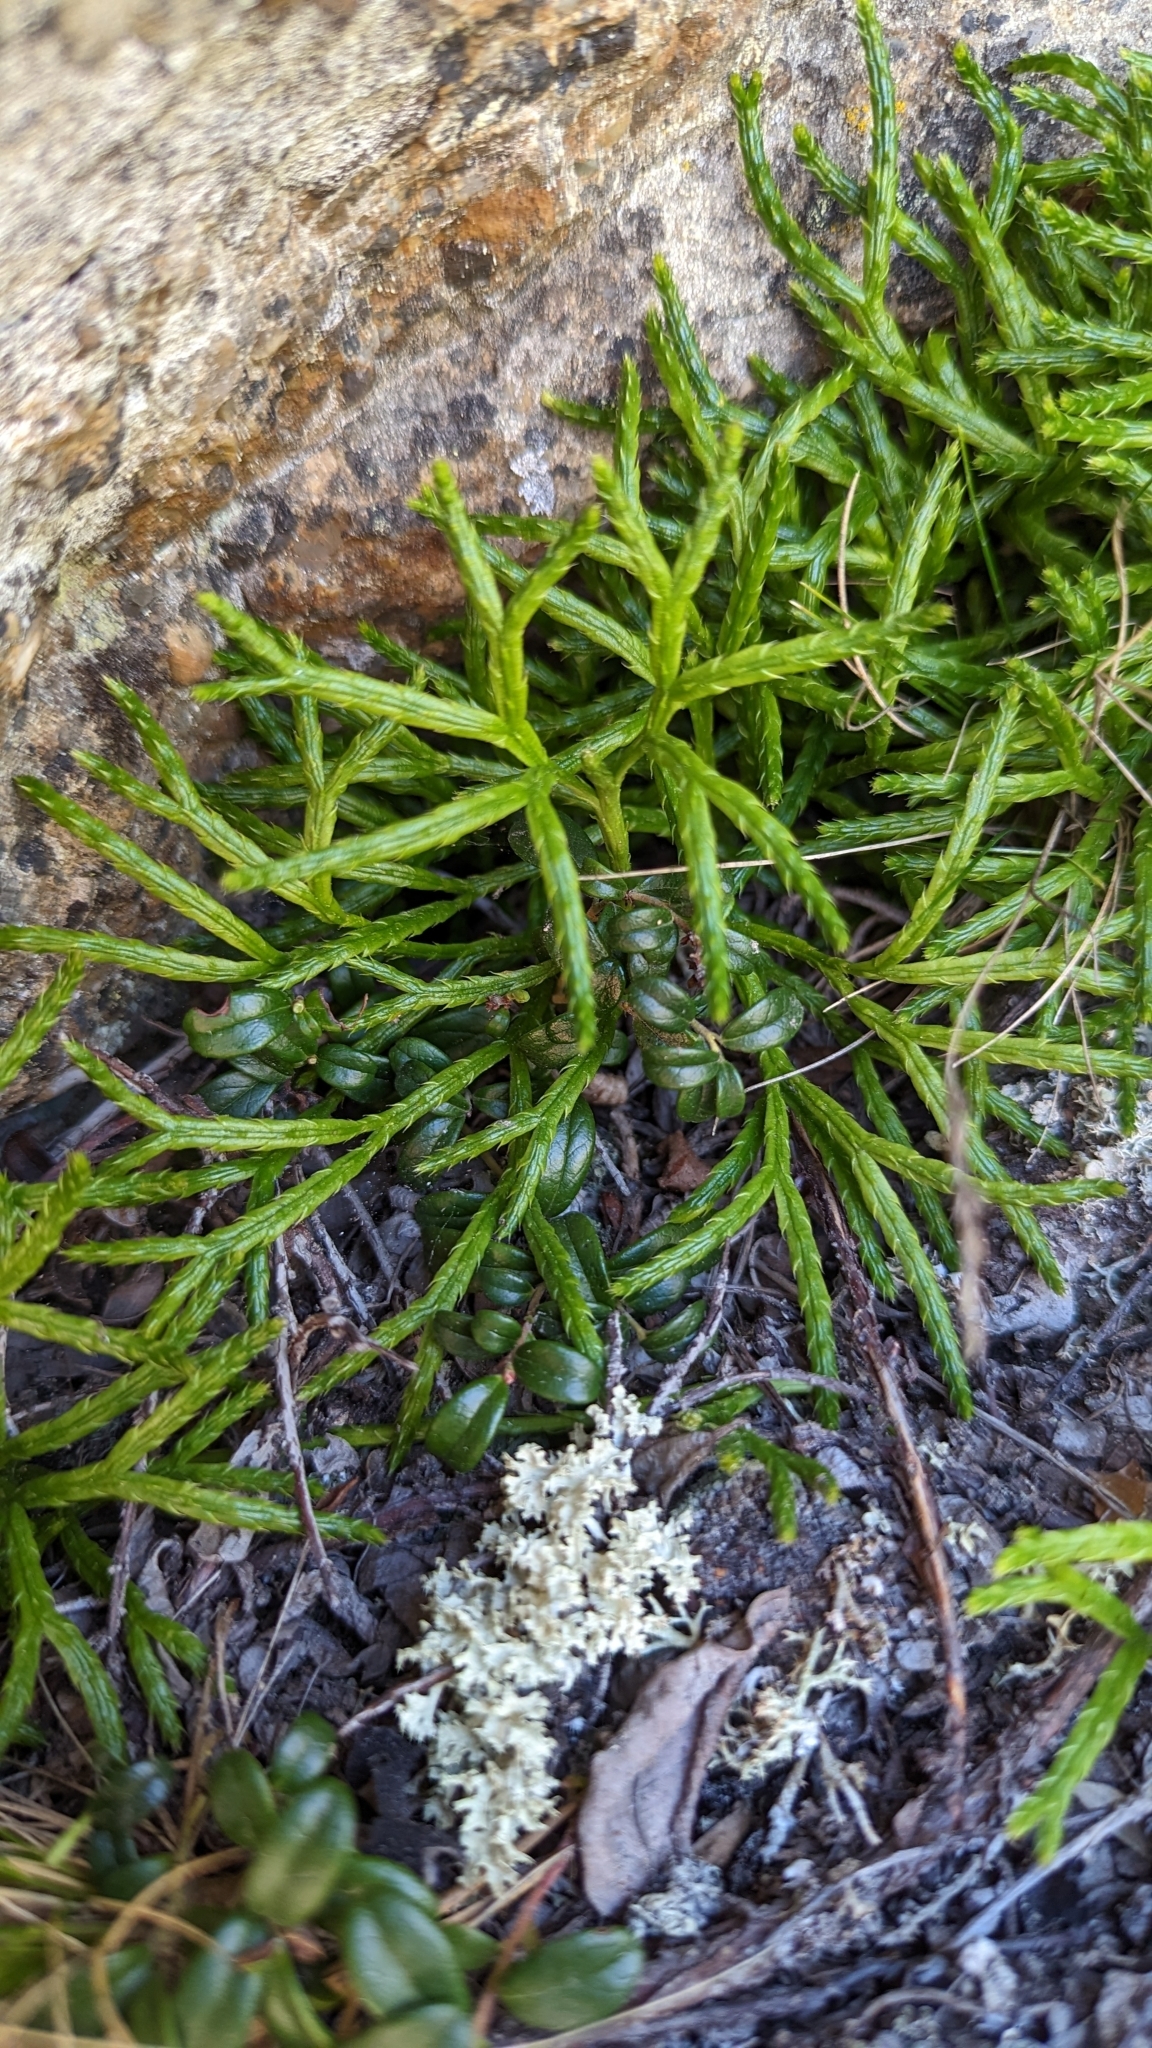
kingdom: Plantae
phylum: Tracheophyta
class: Lycopodiopsida
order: Lycopodiales
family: Lycopodiaceae
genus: Diphasiastrum
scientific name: Diphasiastrum complanatum
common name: Northern running-pine
